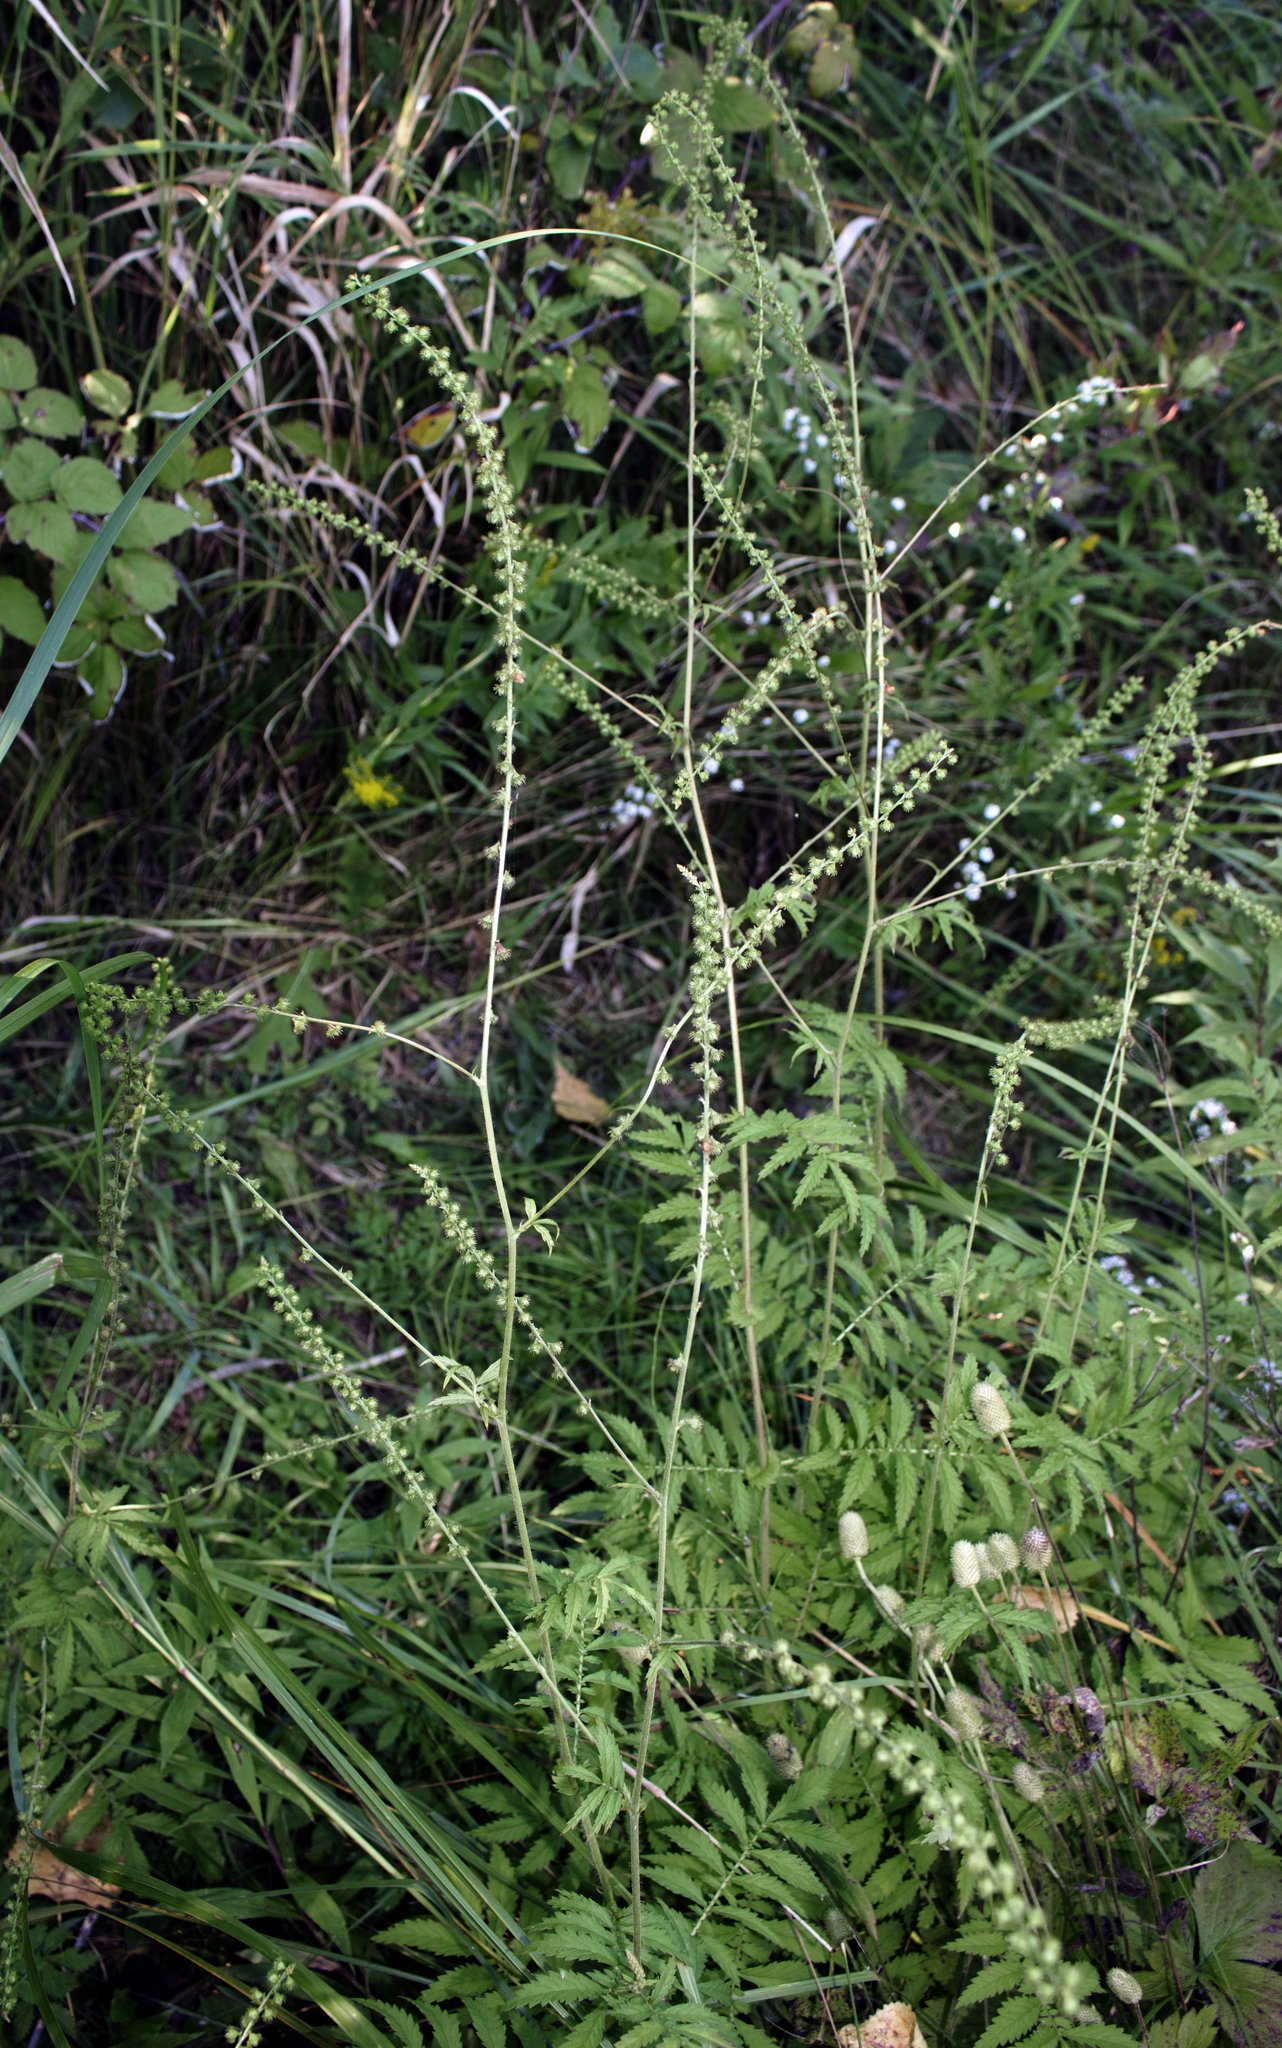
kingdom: Plantae
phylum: Tracheophyta
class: Magnoliopsida
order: Rosales
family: Rosaceae
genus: Agrimonia
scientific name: Agrimonia parviflora
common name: Harvest-lice
